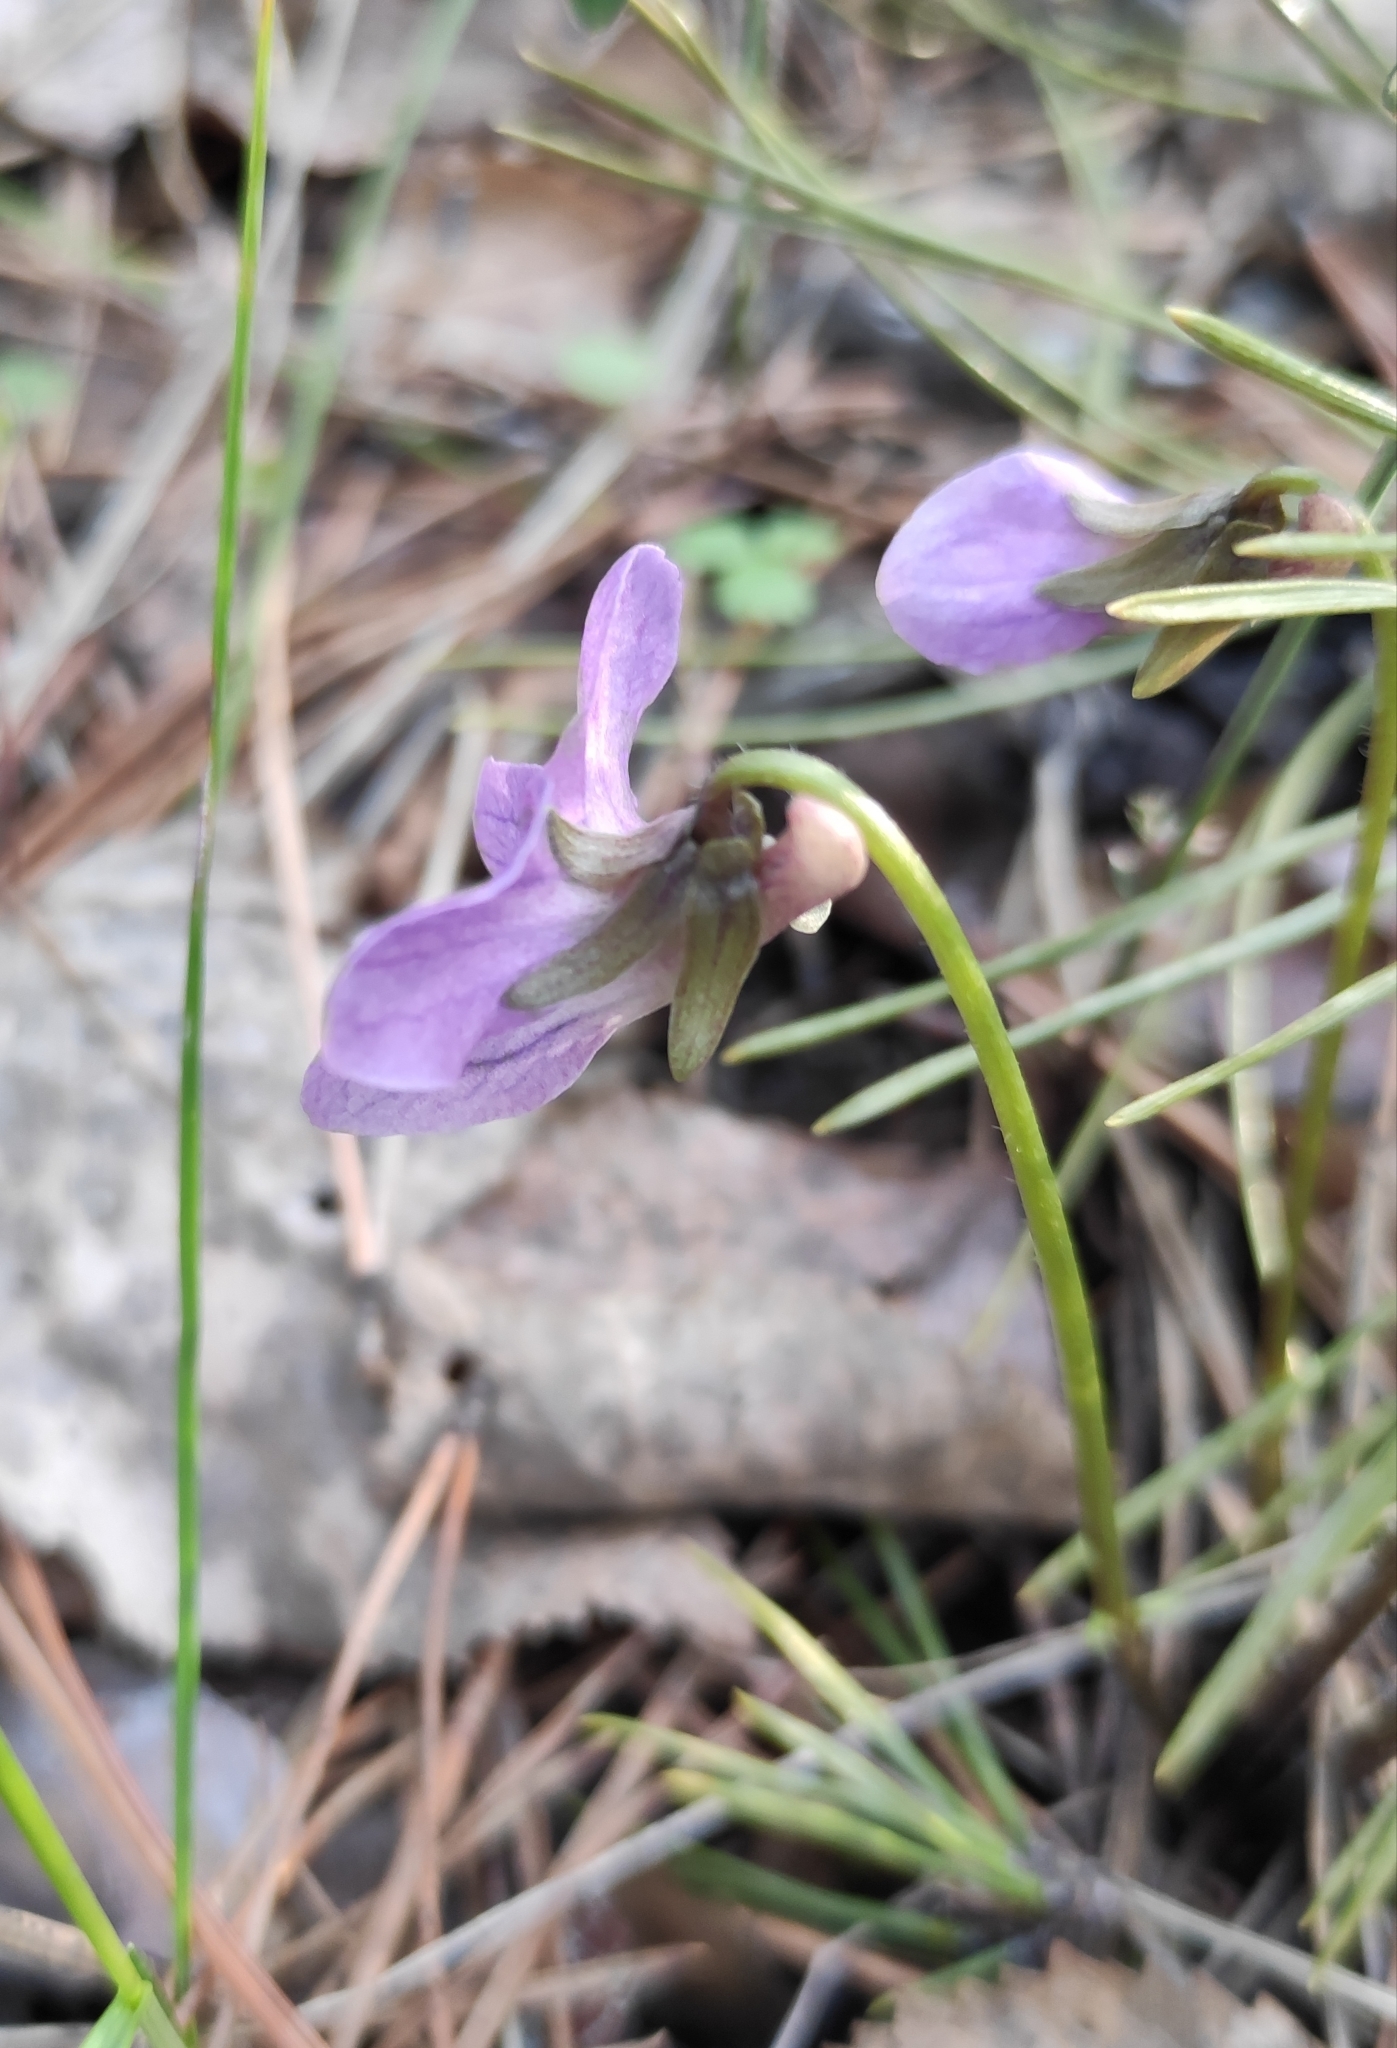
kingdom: Plantae
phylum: Tracheophyta
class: Magnoliopsida
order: Malpighiales
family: Violaceae
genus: Viola
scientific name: Viola dactyloides
